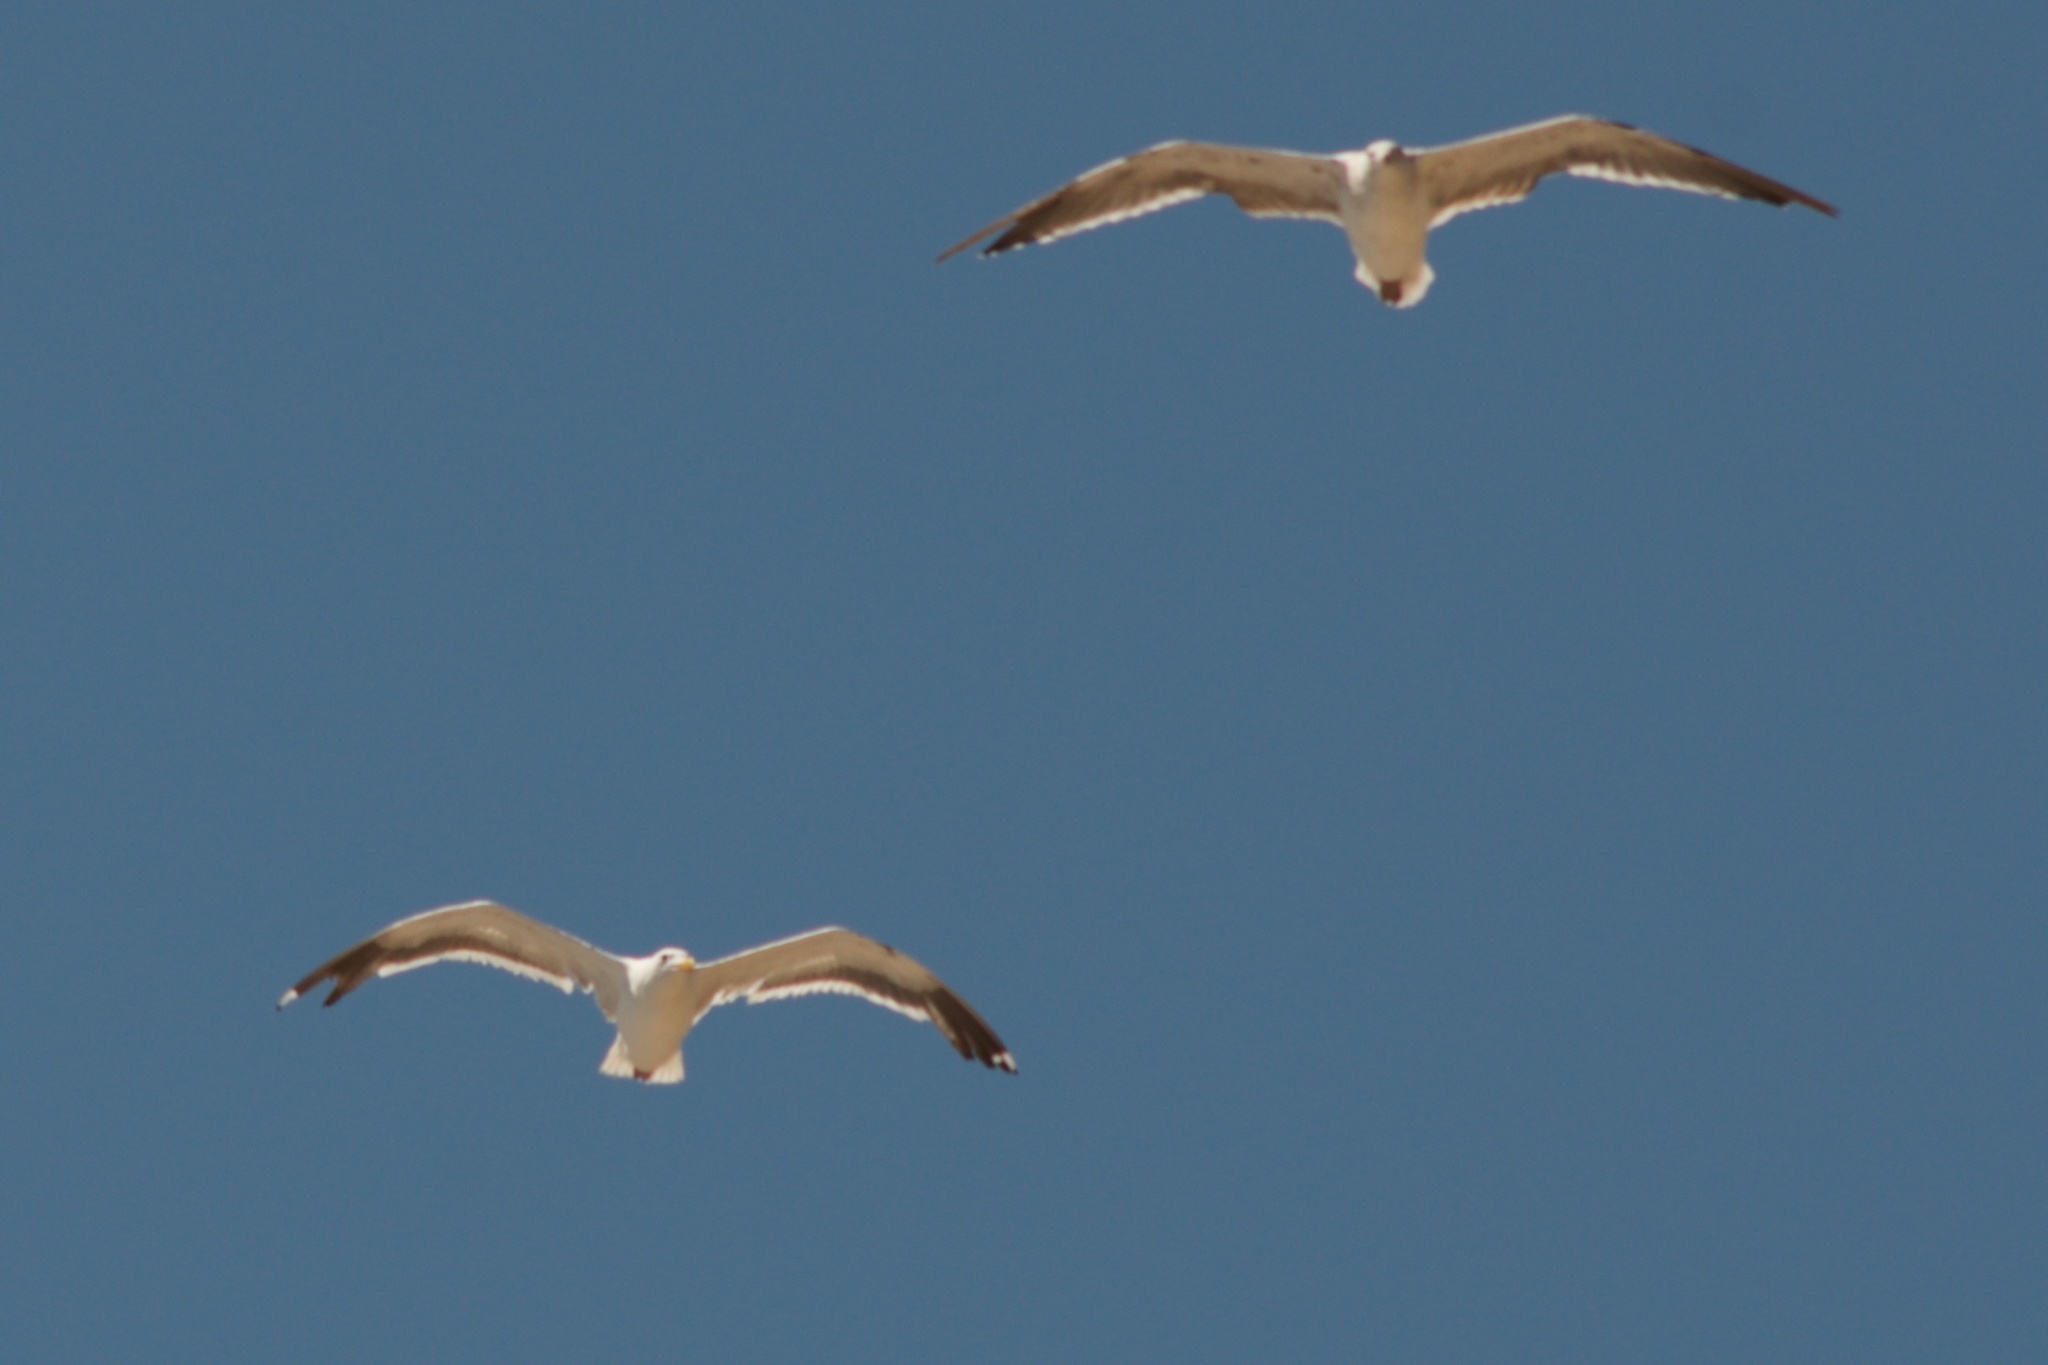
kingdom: Animalia
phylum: Chordata
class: Aves
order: Charadriiformes
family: Laridae
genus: Larus
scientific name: Larus occidentalis
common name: Western gull
